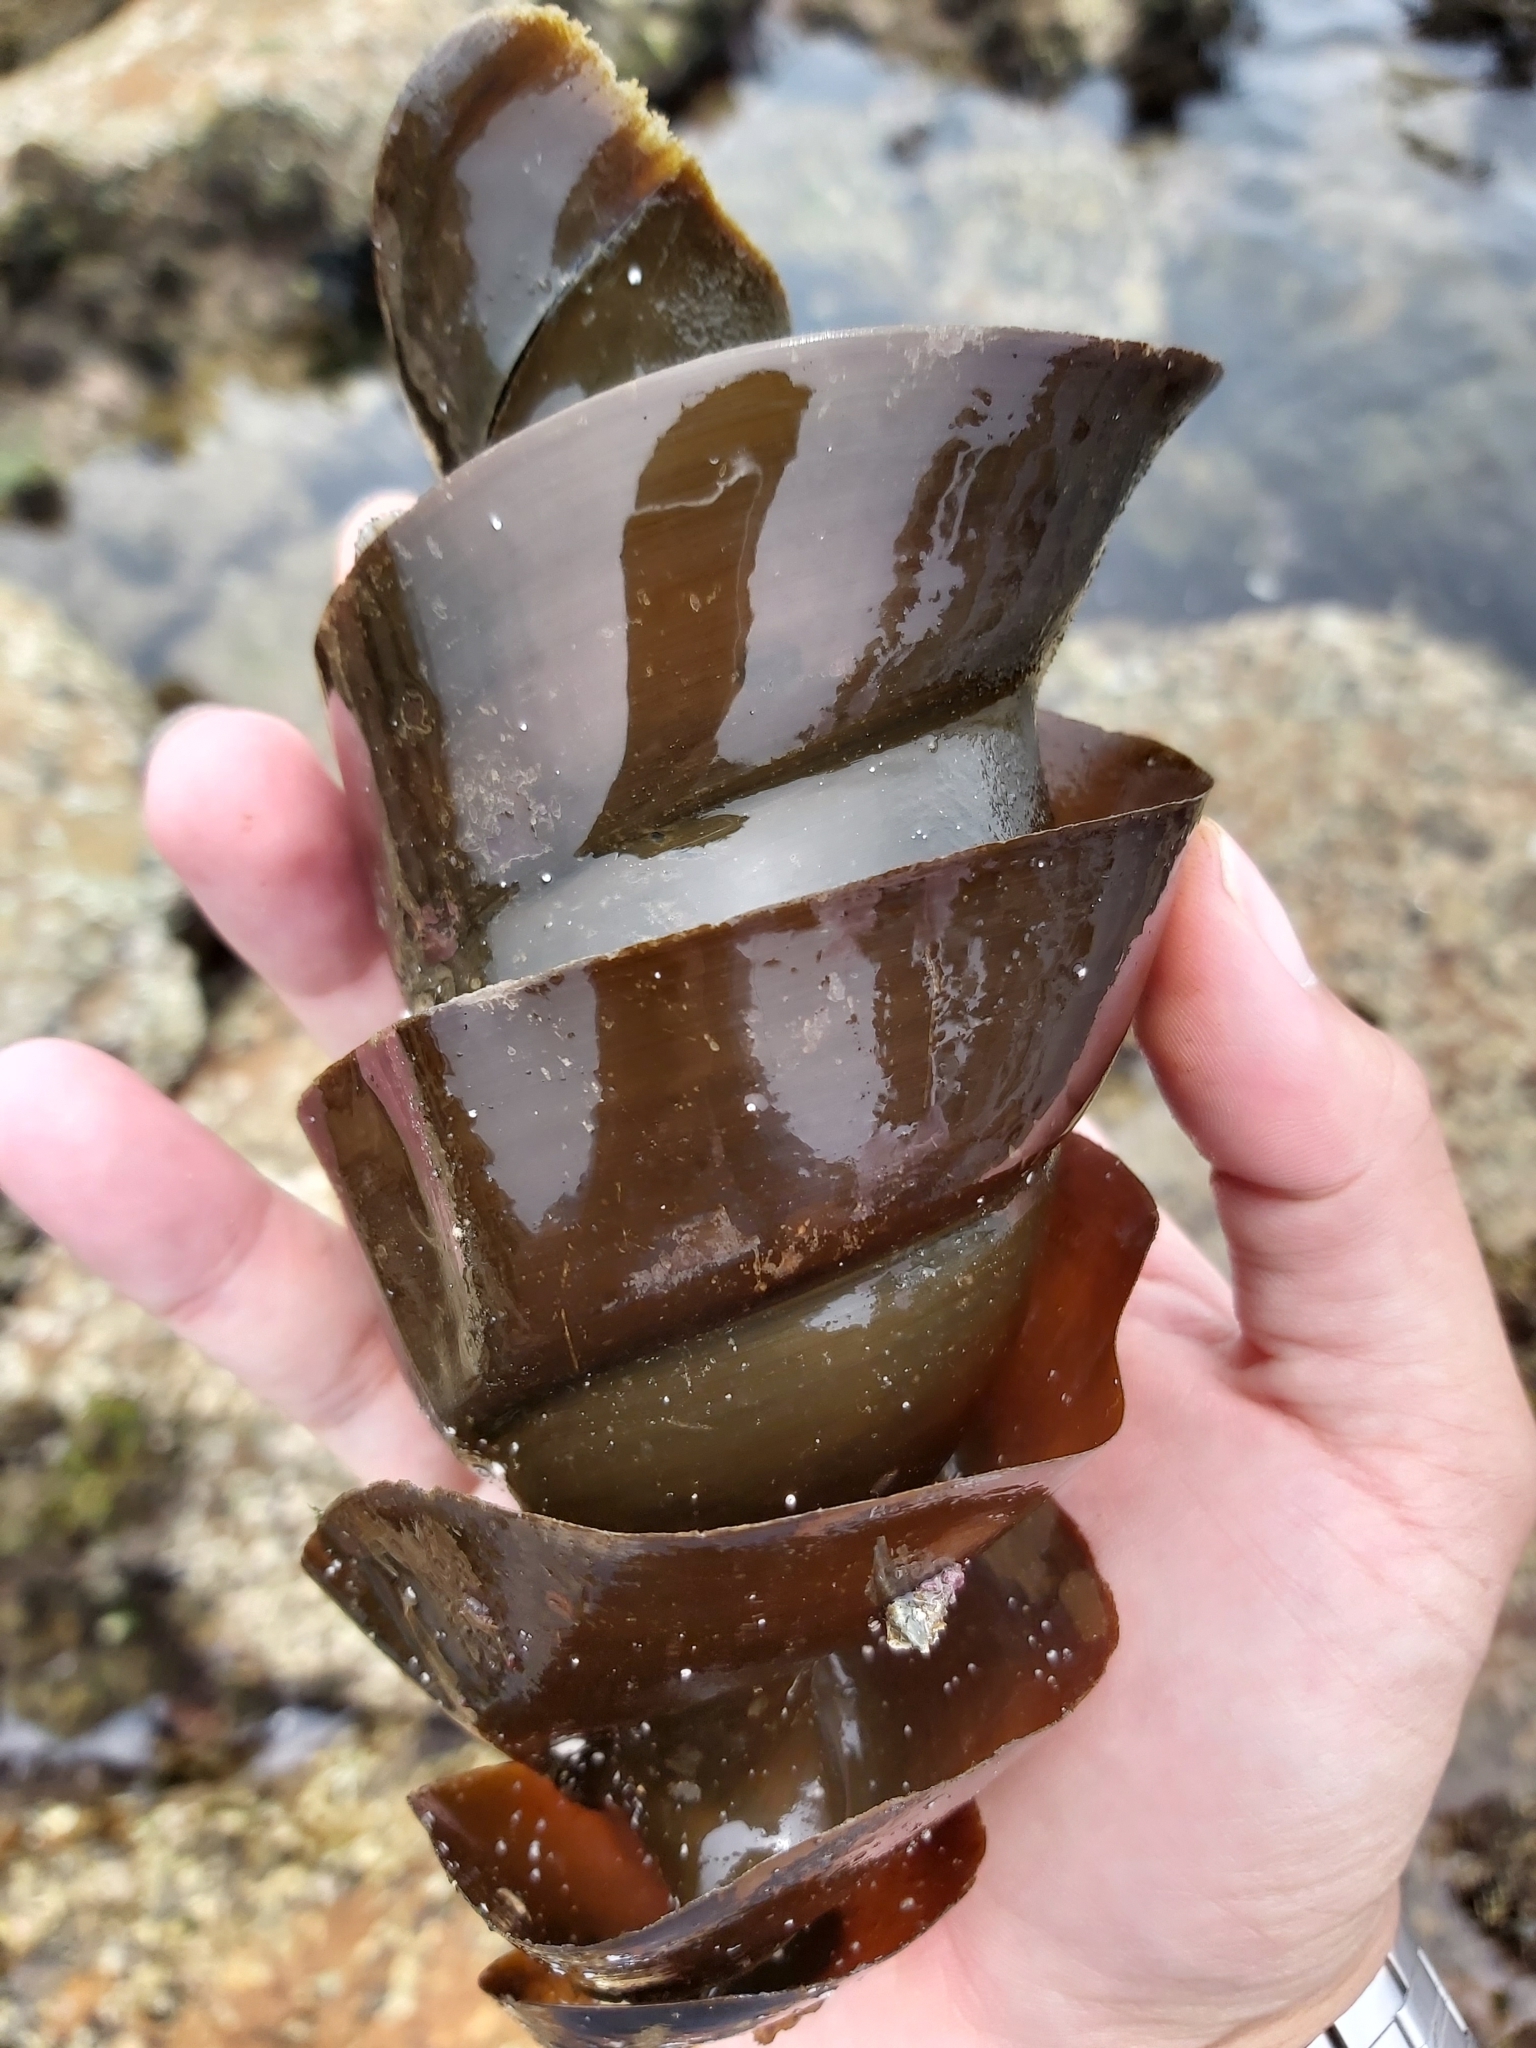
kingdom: Animalia
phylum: Chordata
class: Elasmobranchii
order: Heterodontiformes
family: Heterodontidae
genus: Heterodontus
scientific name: Heterodontus portusjacksoni
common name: Port jackson shark
